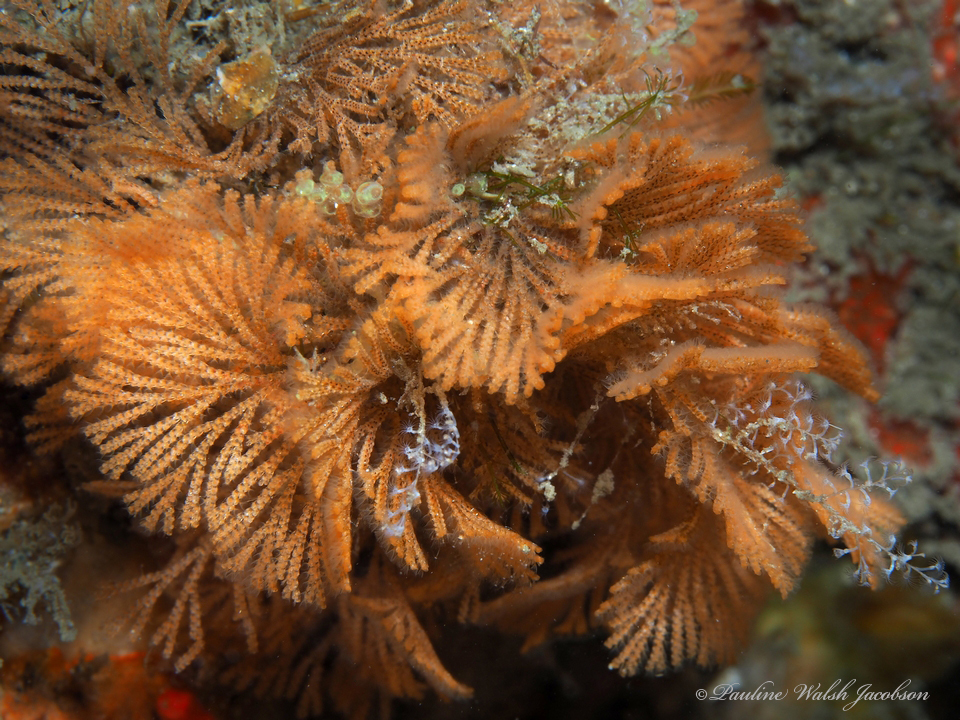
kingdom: Animalia
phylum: Bryozoa
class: Gymnolaemata
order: Cheilostomatida
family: Bugulidae
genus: Bugula
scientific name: Bugula neritina
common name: Brown bryozoan
